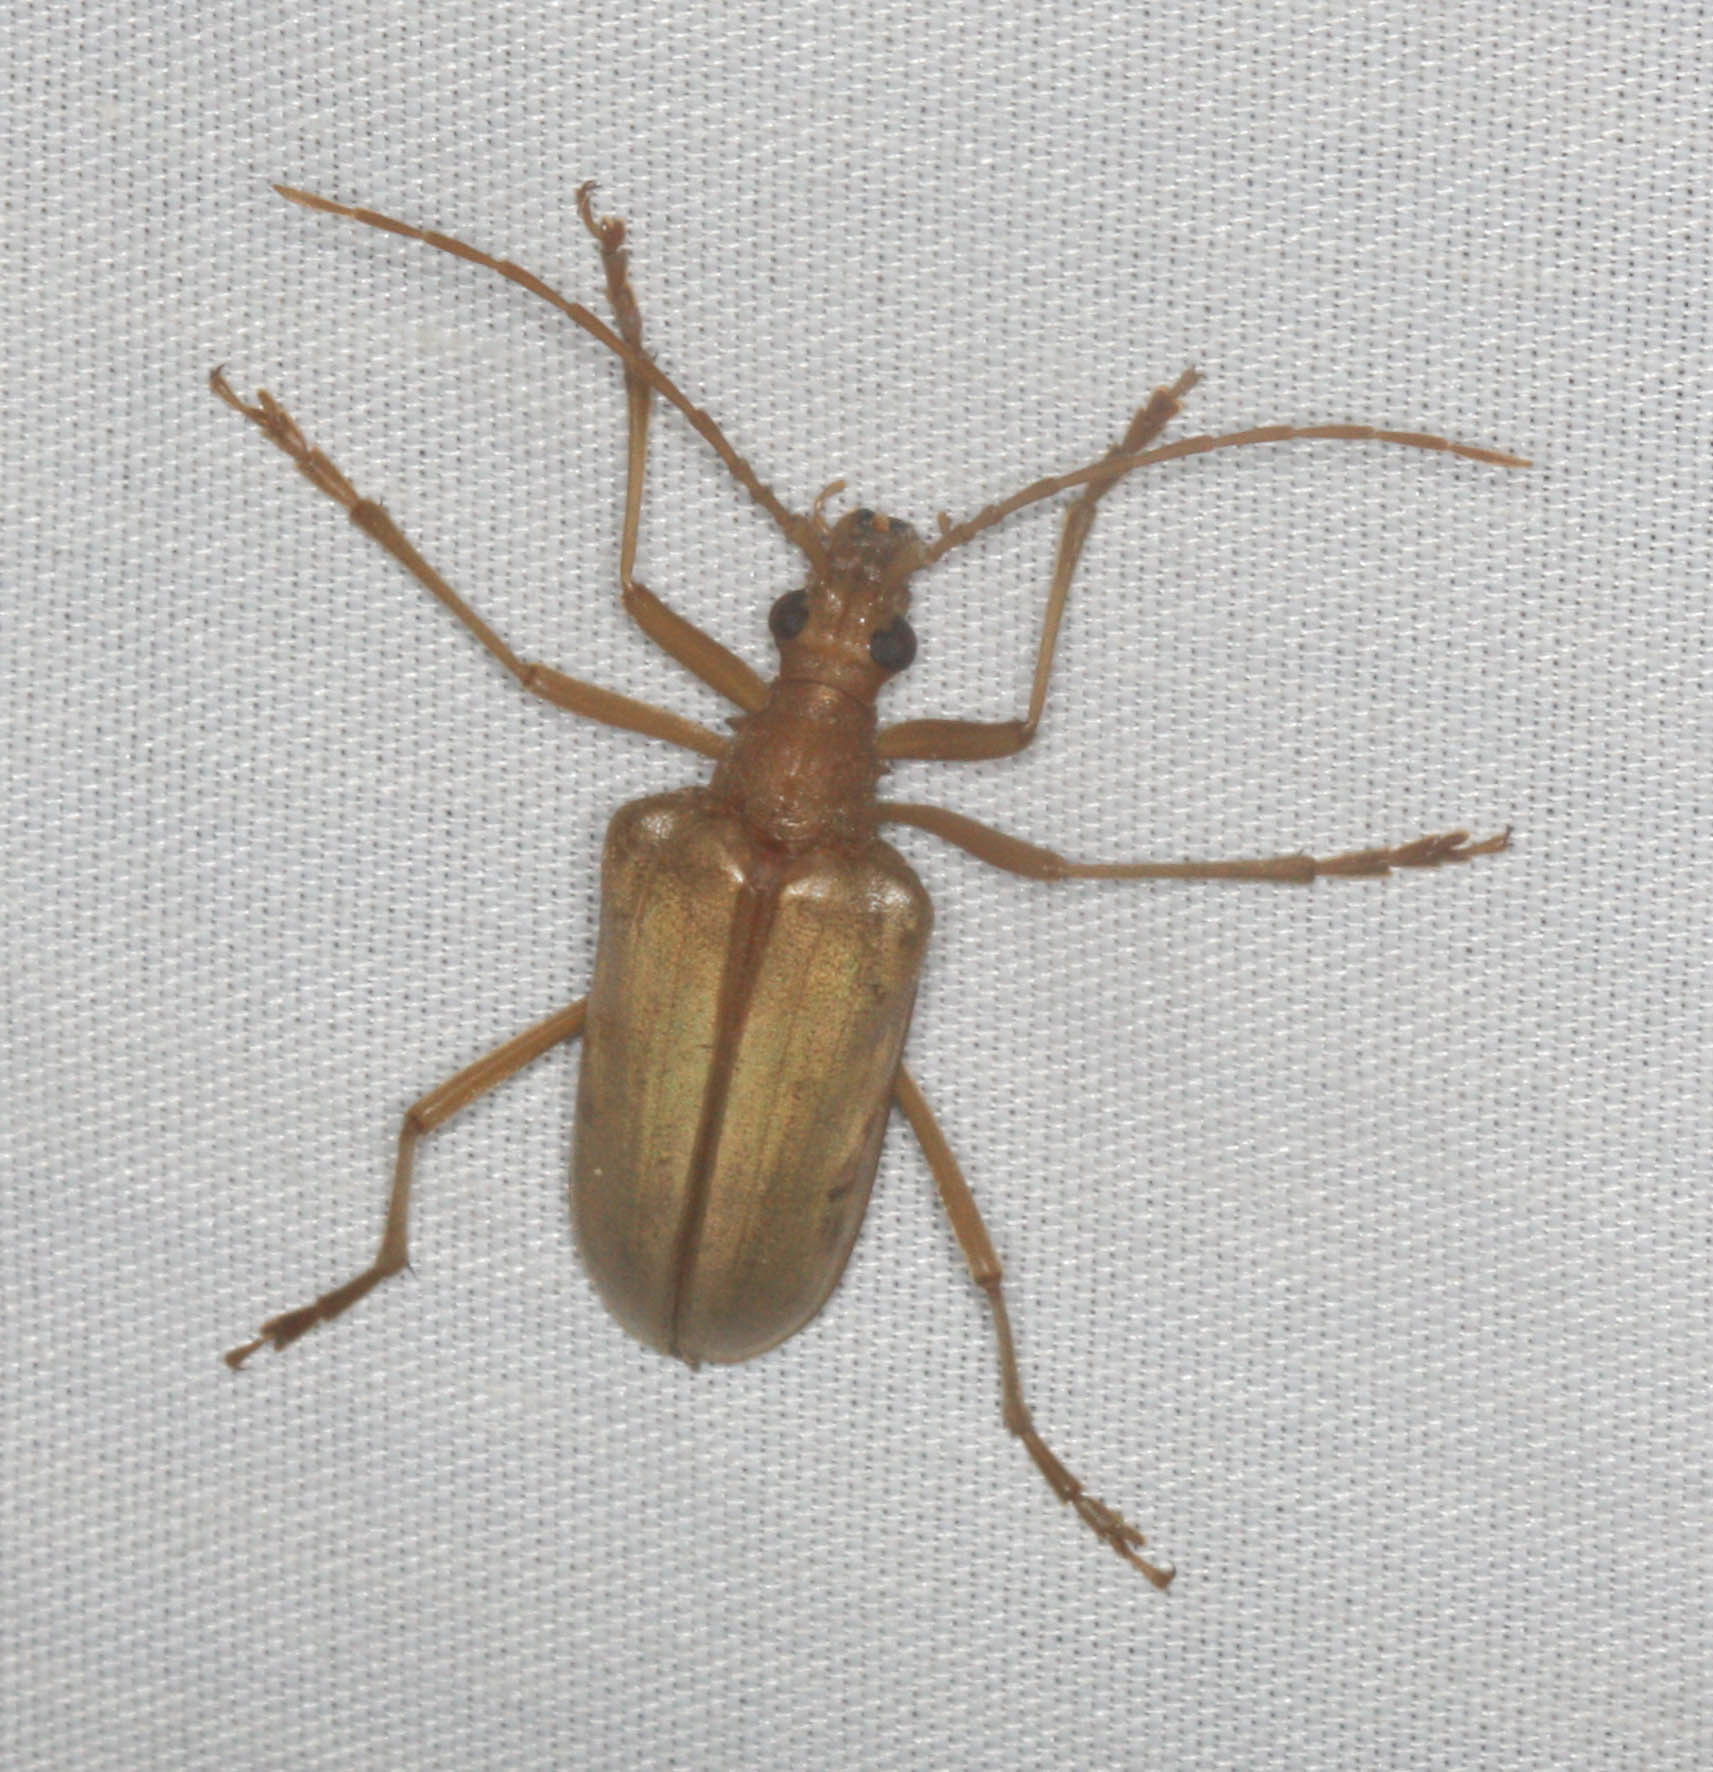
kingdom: Animalia
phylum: Arthropoda
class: Insecta
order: Coleoptera
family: Cerambycidae
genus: Centrodera
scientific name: Centrodera spurca
